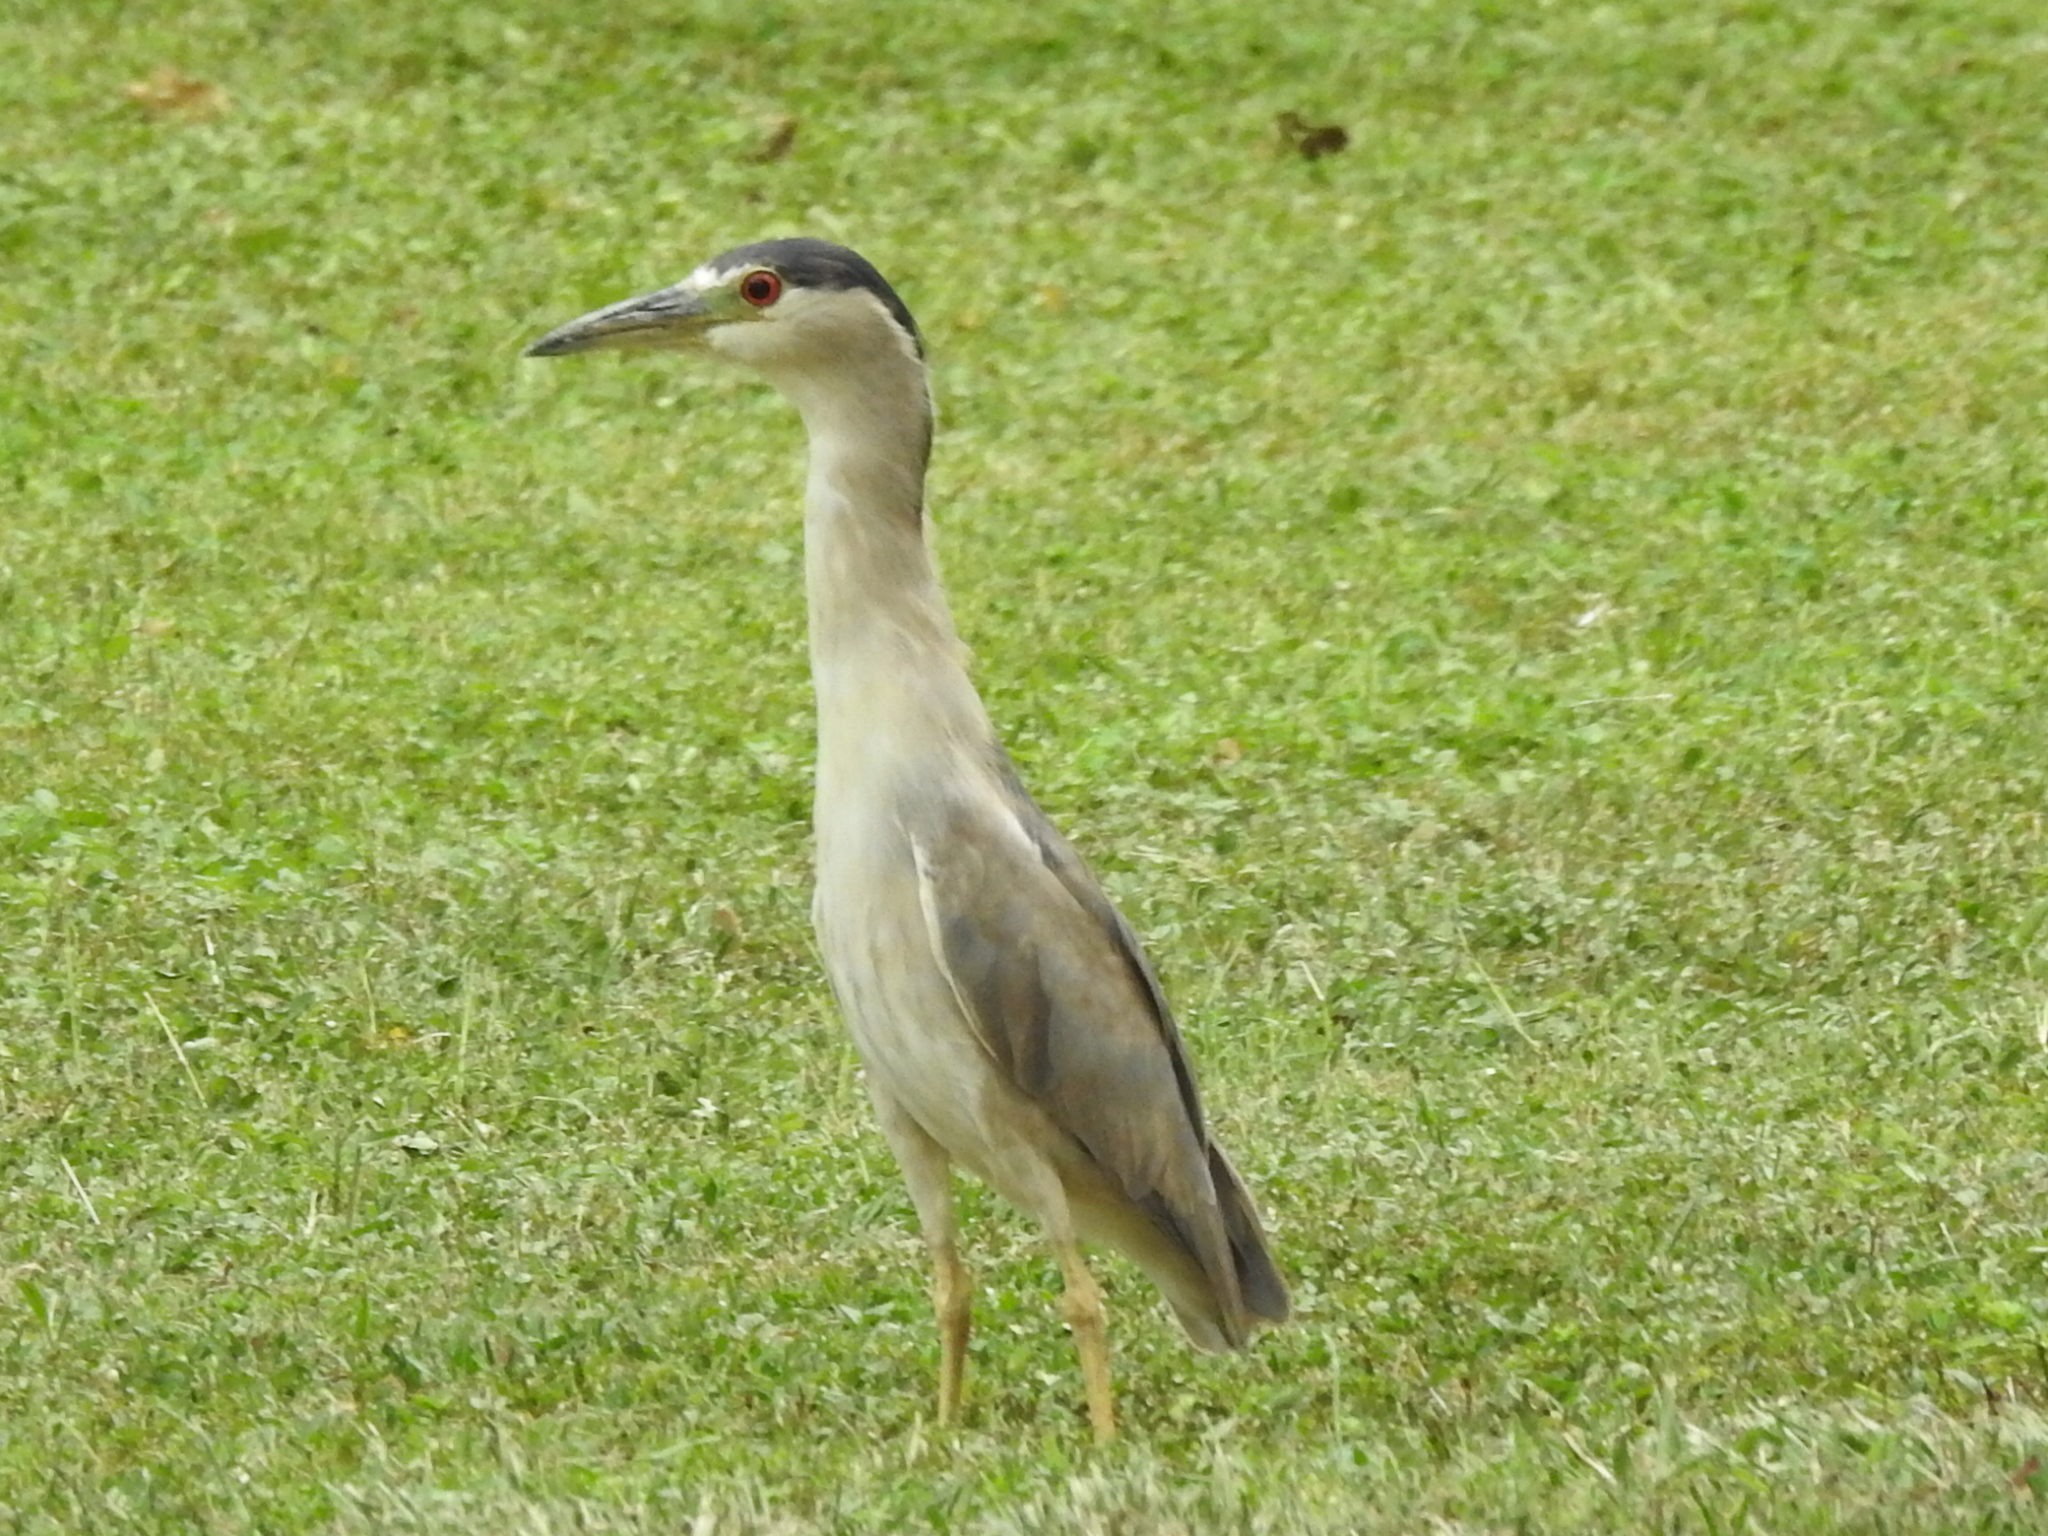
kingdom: Animalia
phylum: Chordata
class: Aves
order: Pelecaniformes
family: Ardeidae
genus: Nycticorax
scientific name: Nycticorax nycticorax
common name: Black-crowned night heron
